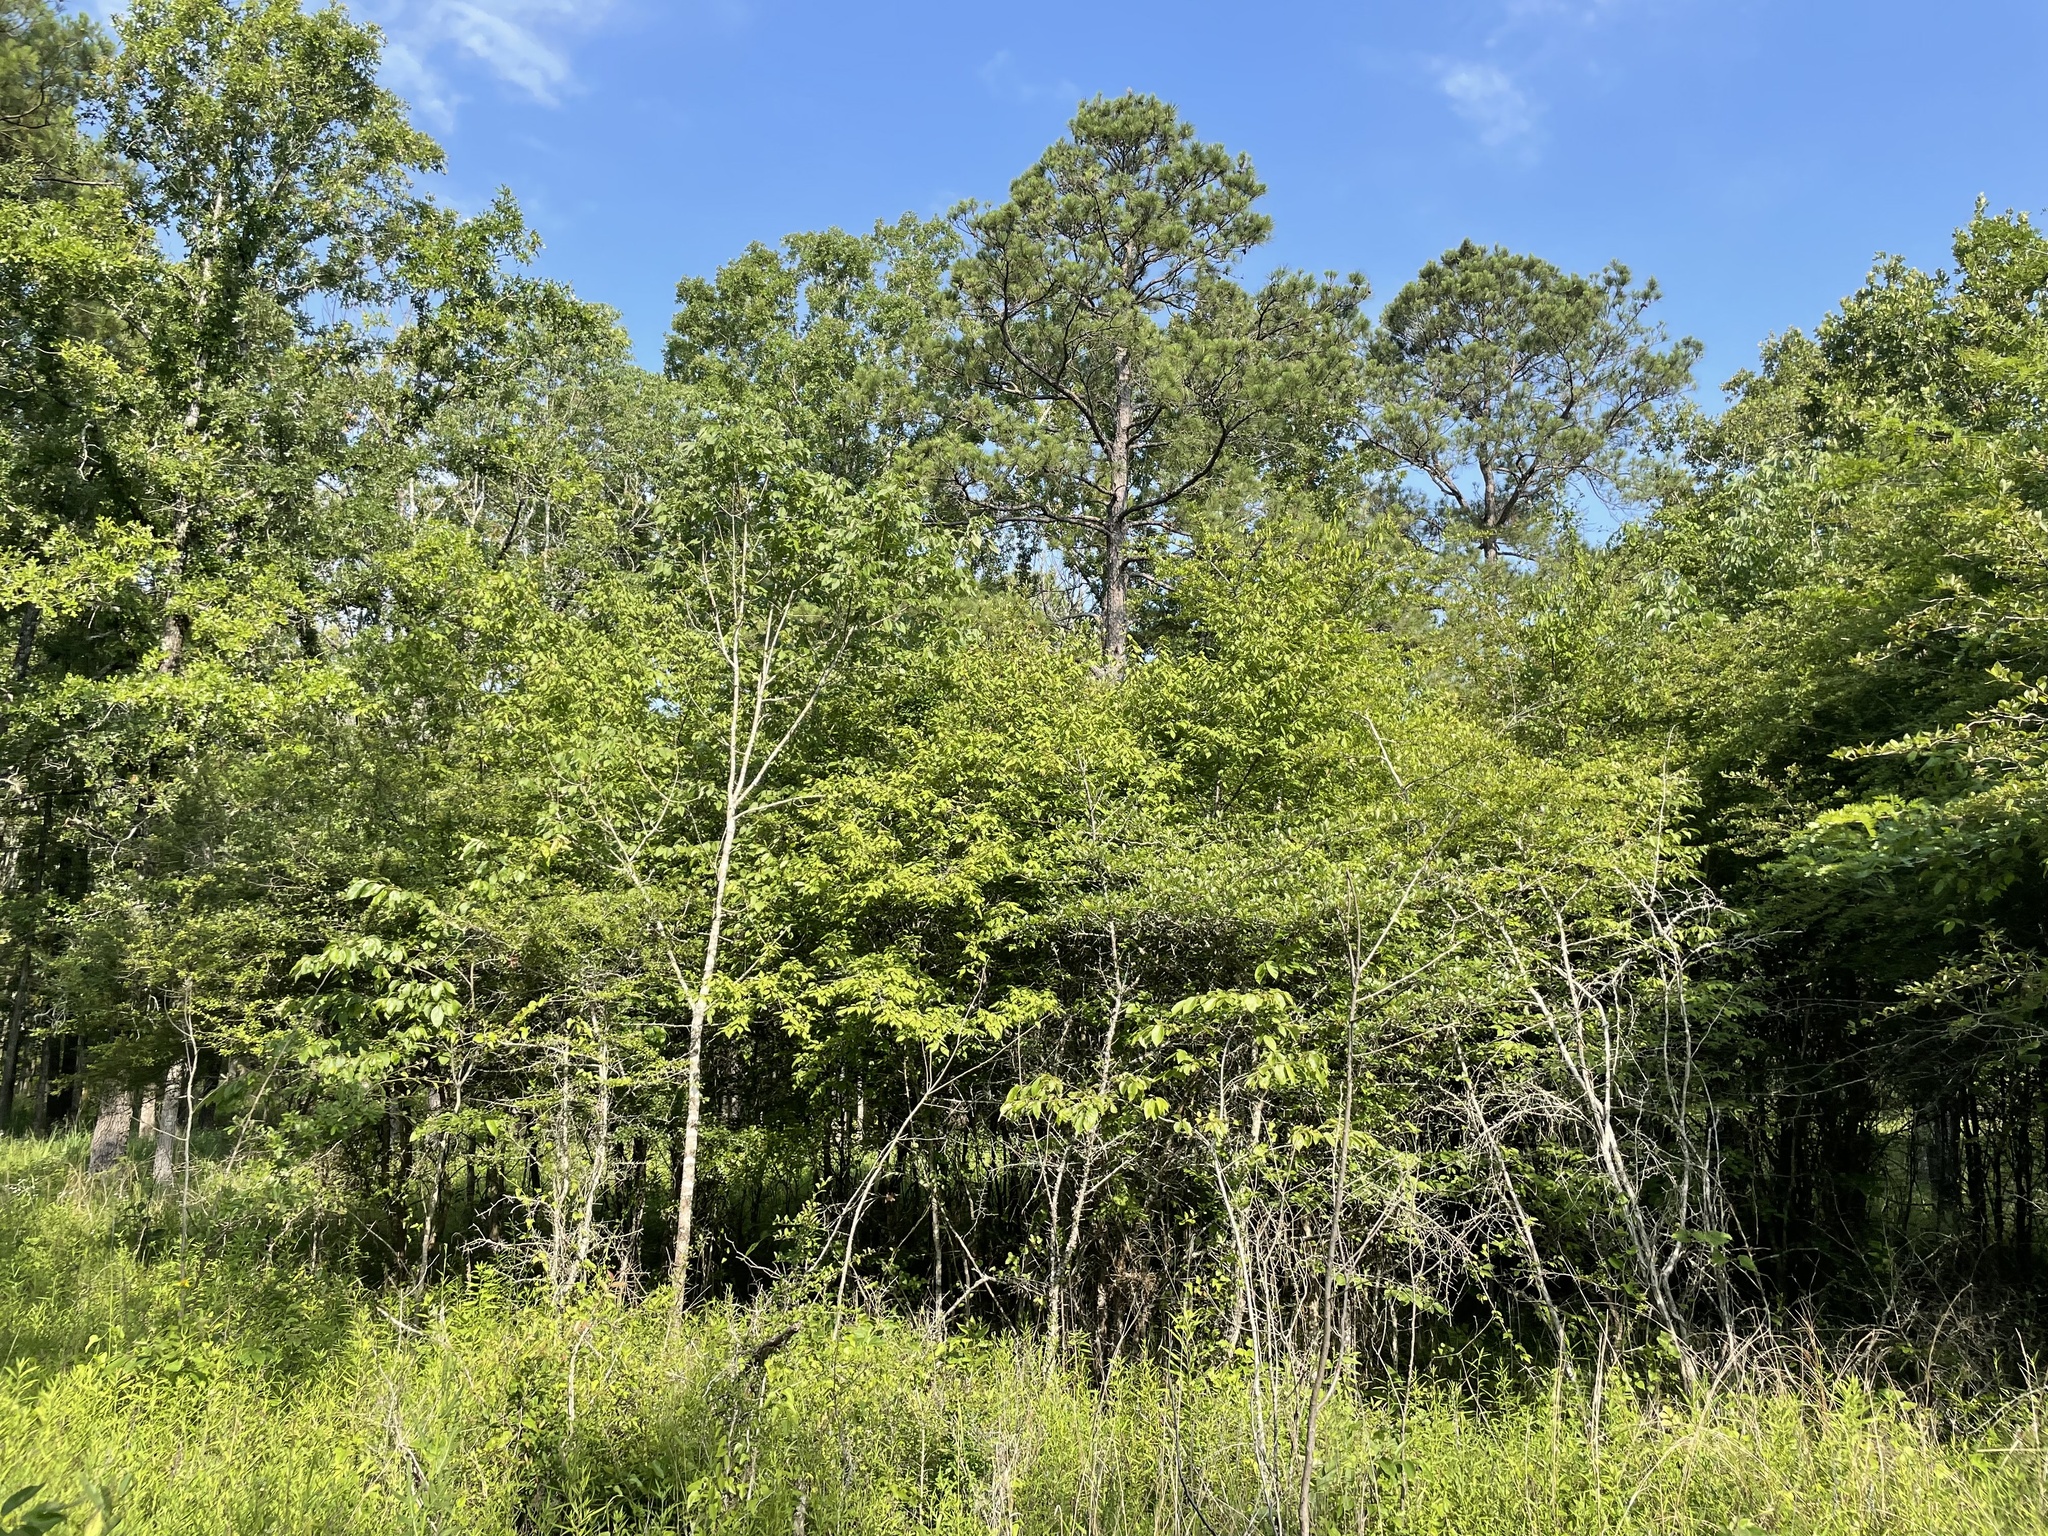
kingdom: Plantae
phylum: Tracheophyta
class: Magnoliopsida
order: Rosales
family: Rosaceae
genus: Crataegus
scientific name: Crataegus berberifolia
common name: Barberry hawthorn
